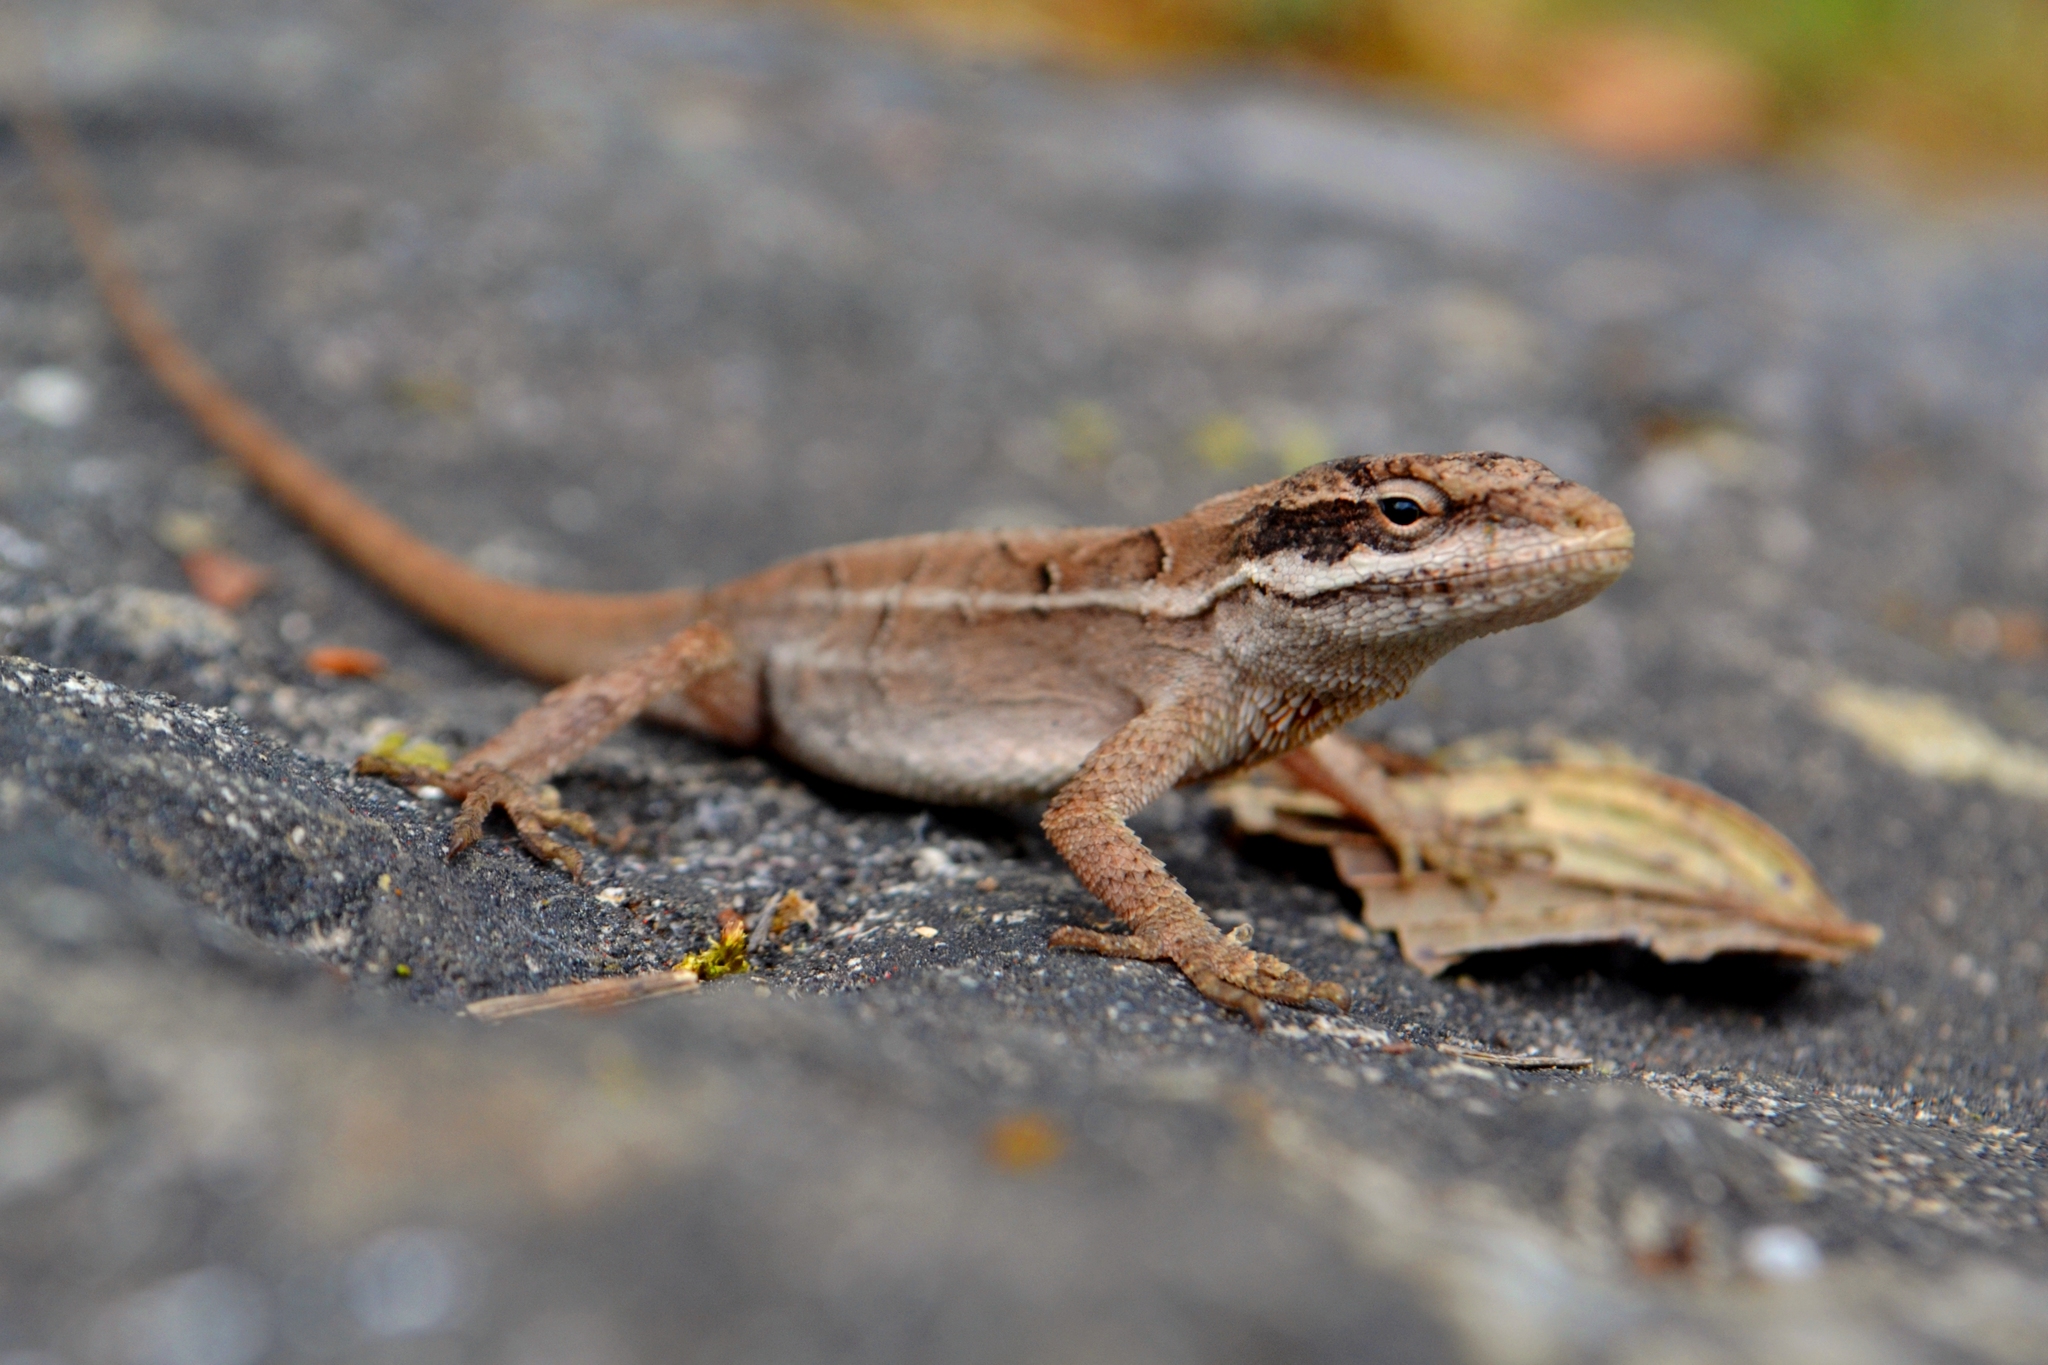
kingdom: Animalia
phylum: Chordata
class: Squamata
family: Dactyloidae
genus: Anolis
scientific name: Anolis anisolepis
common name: Chiapas ornate anole
